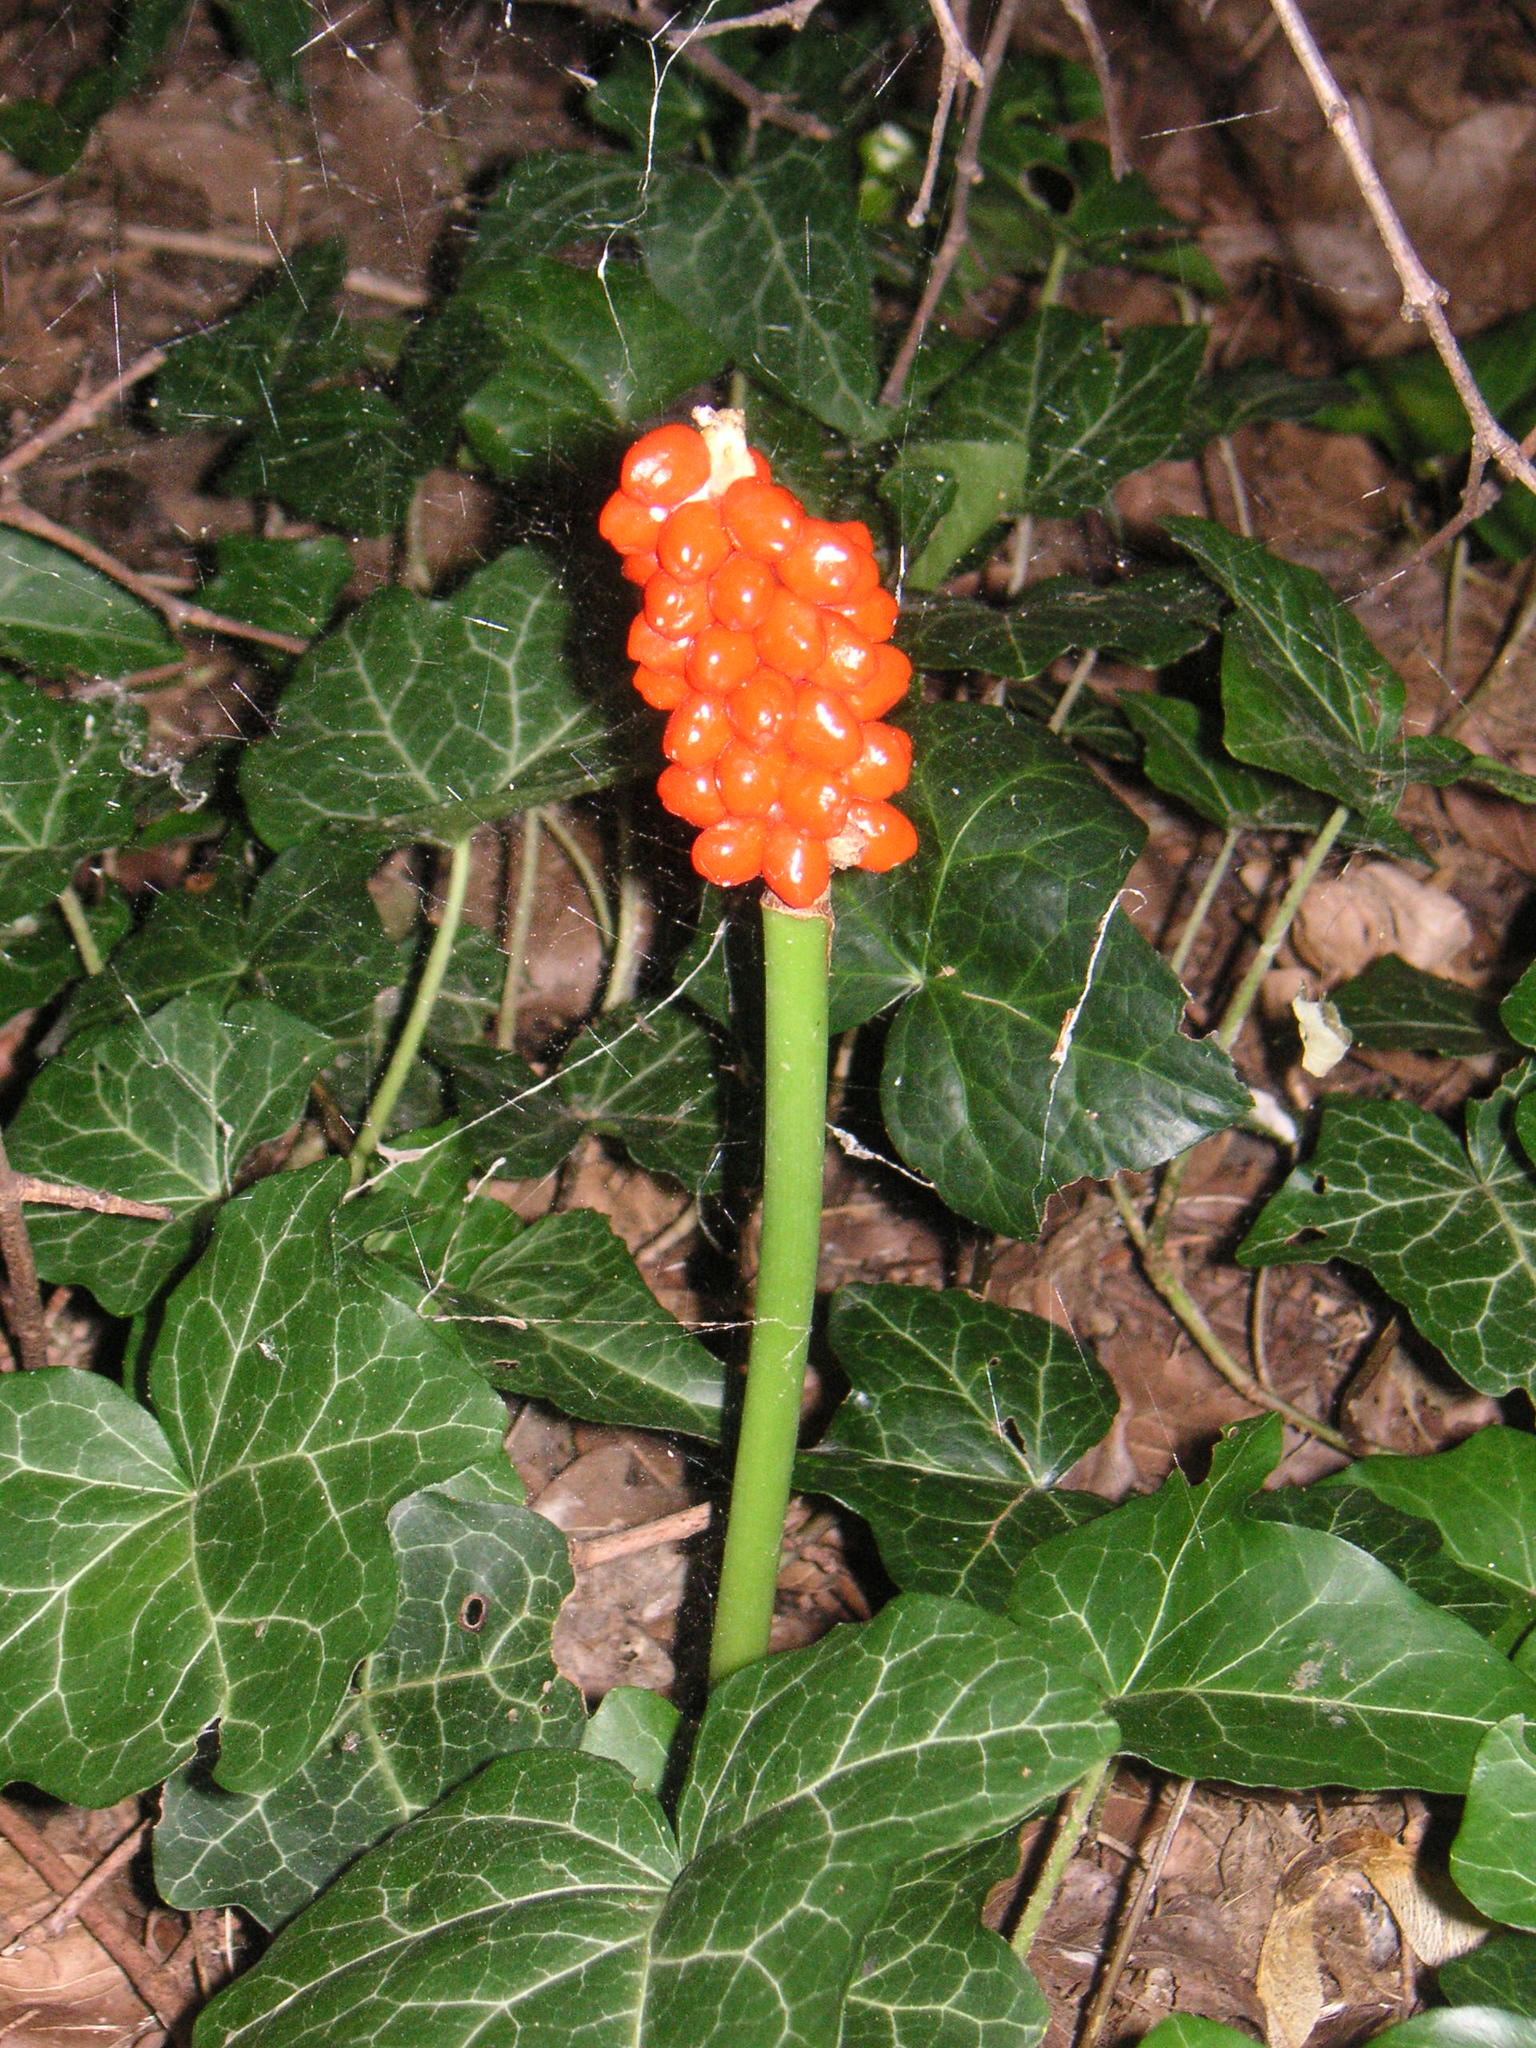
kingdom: Plantae
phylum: Tracheophyta
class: Liliopsida
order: Alismatales
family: Araceae
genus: Arum
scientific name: Arum cylindraceum
